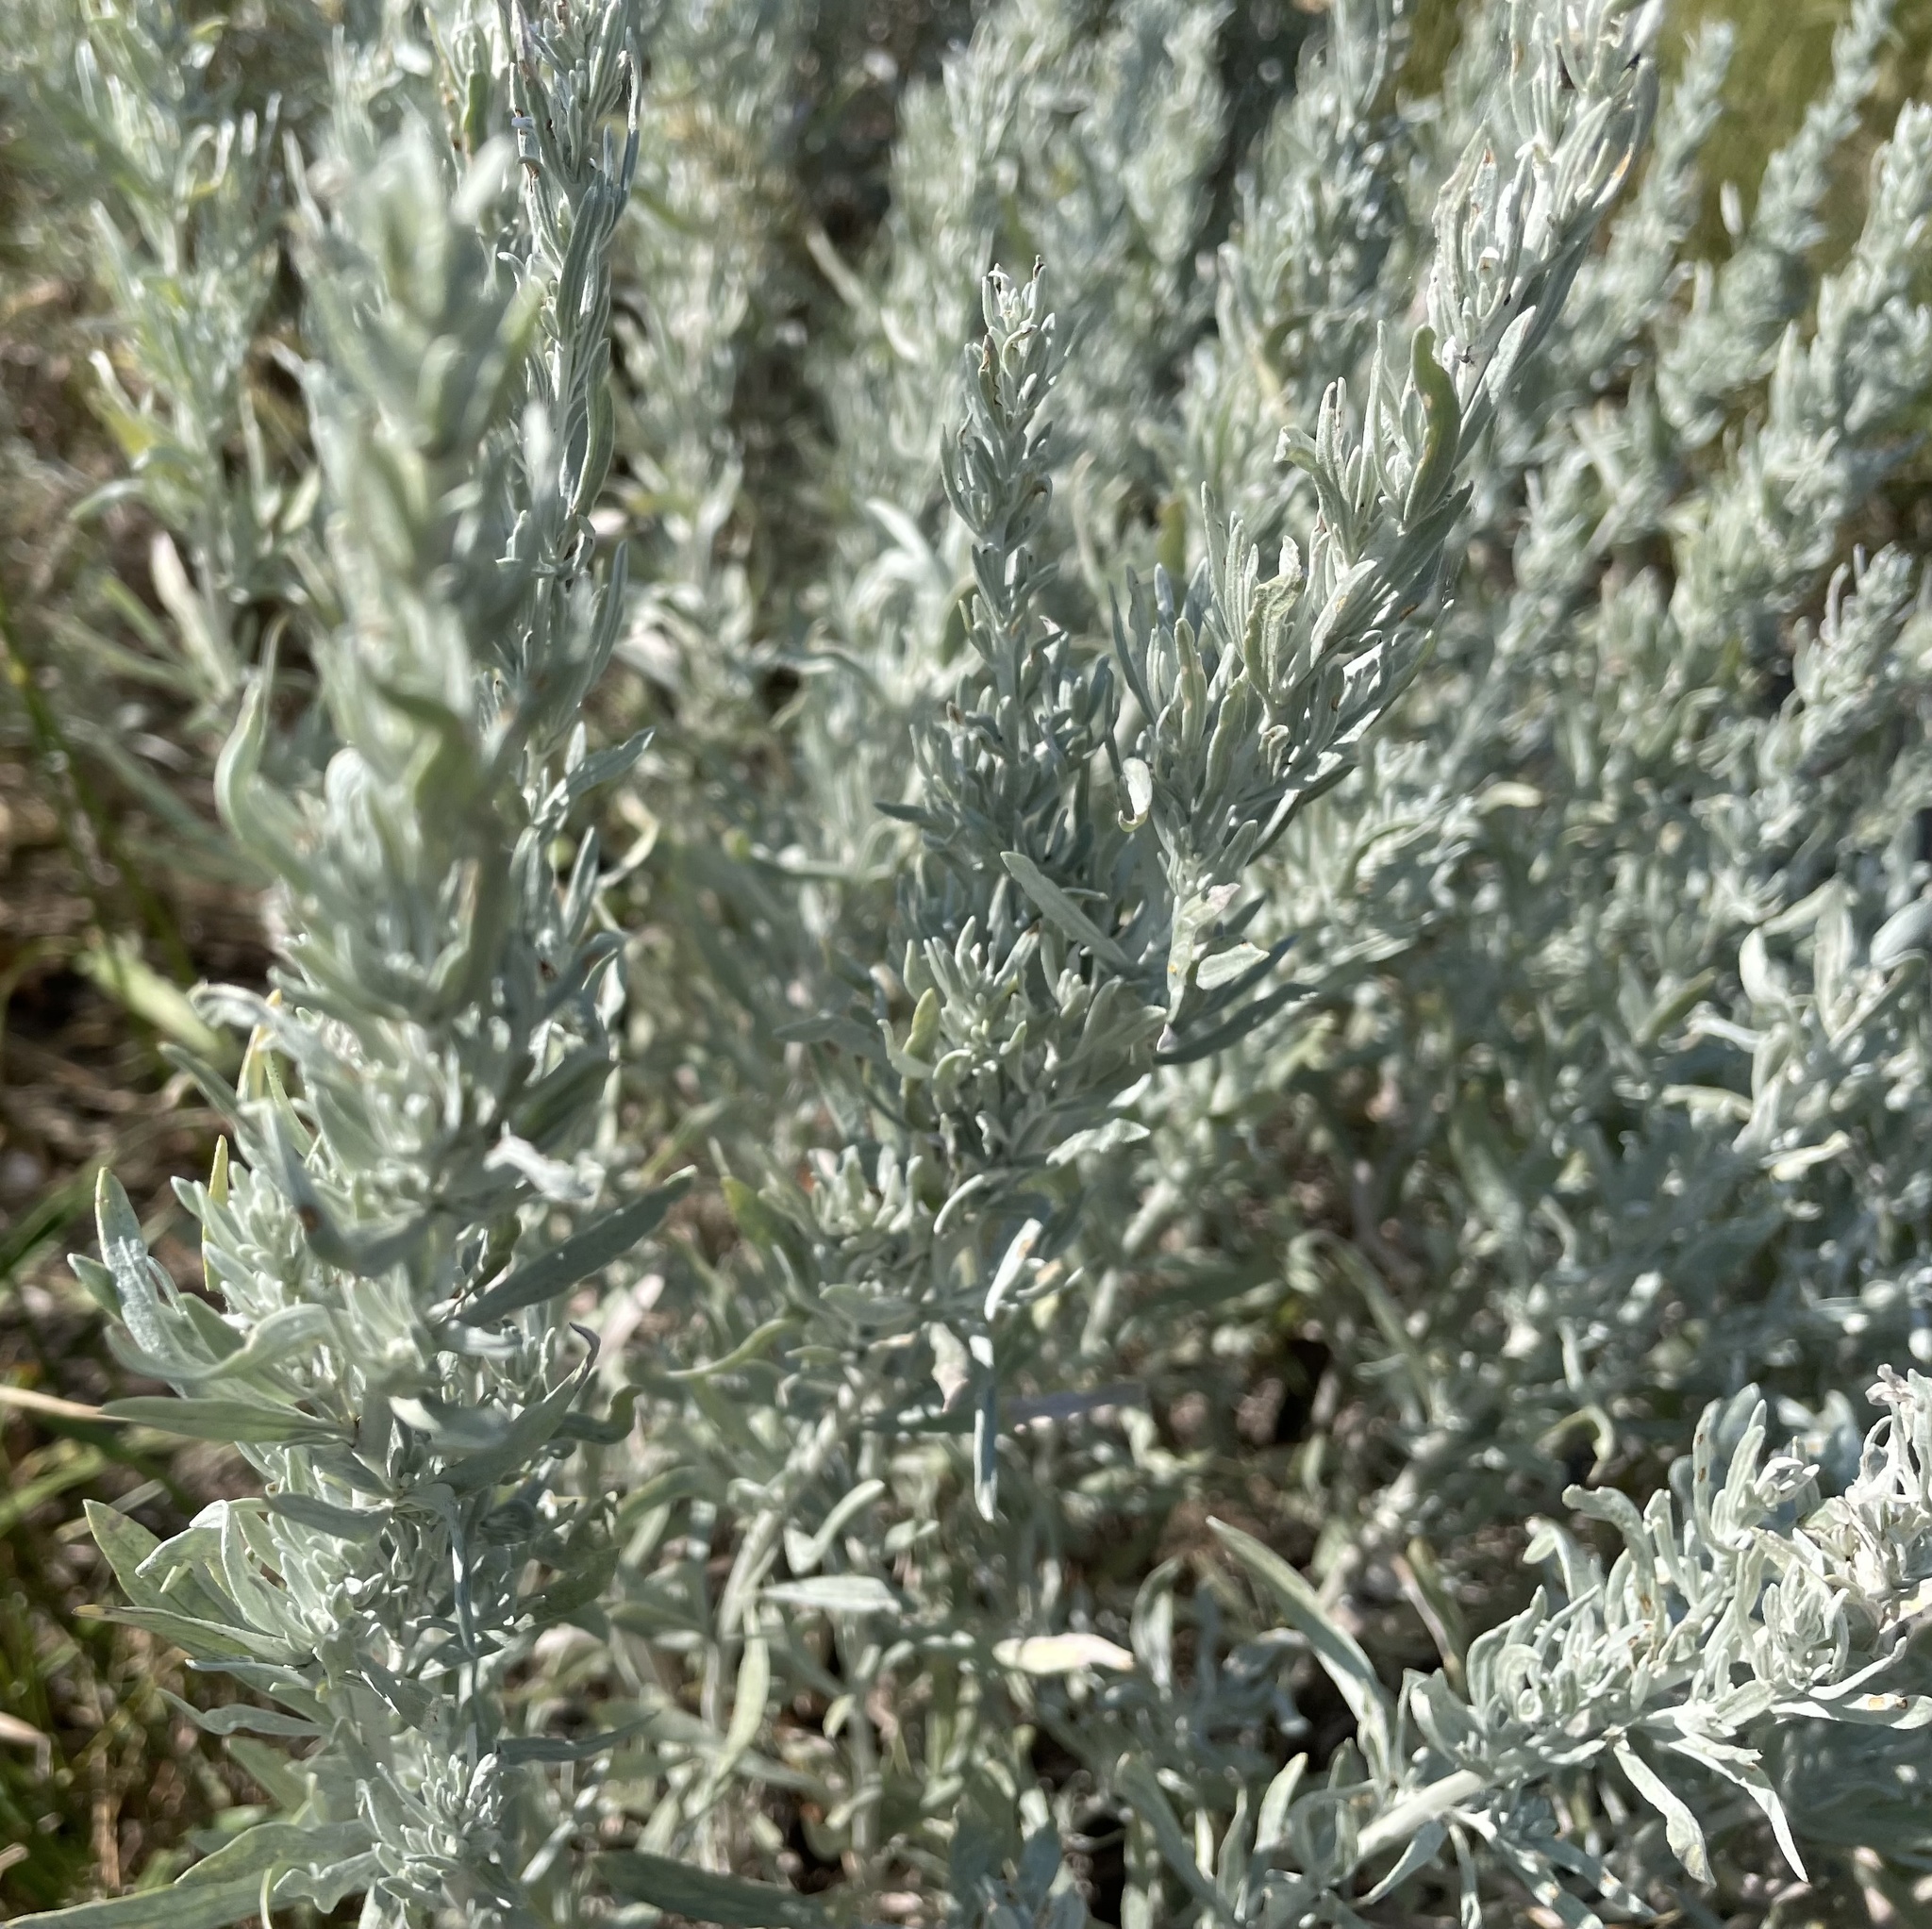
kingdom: Plantae
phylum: Tracheophyta
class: Magnoliopsida
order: Asterales
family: Asteraceae
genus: Artemisia
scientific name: Artemisia cana
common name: Silver sagebrush
